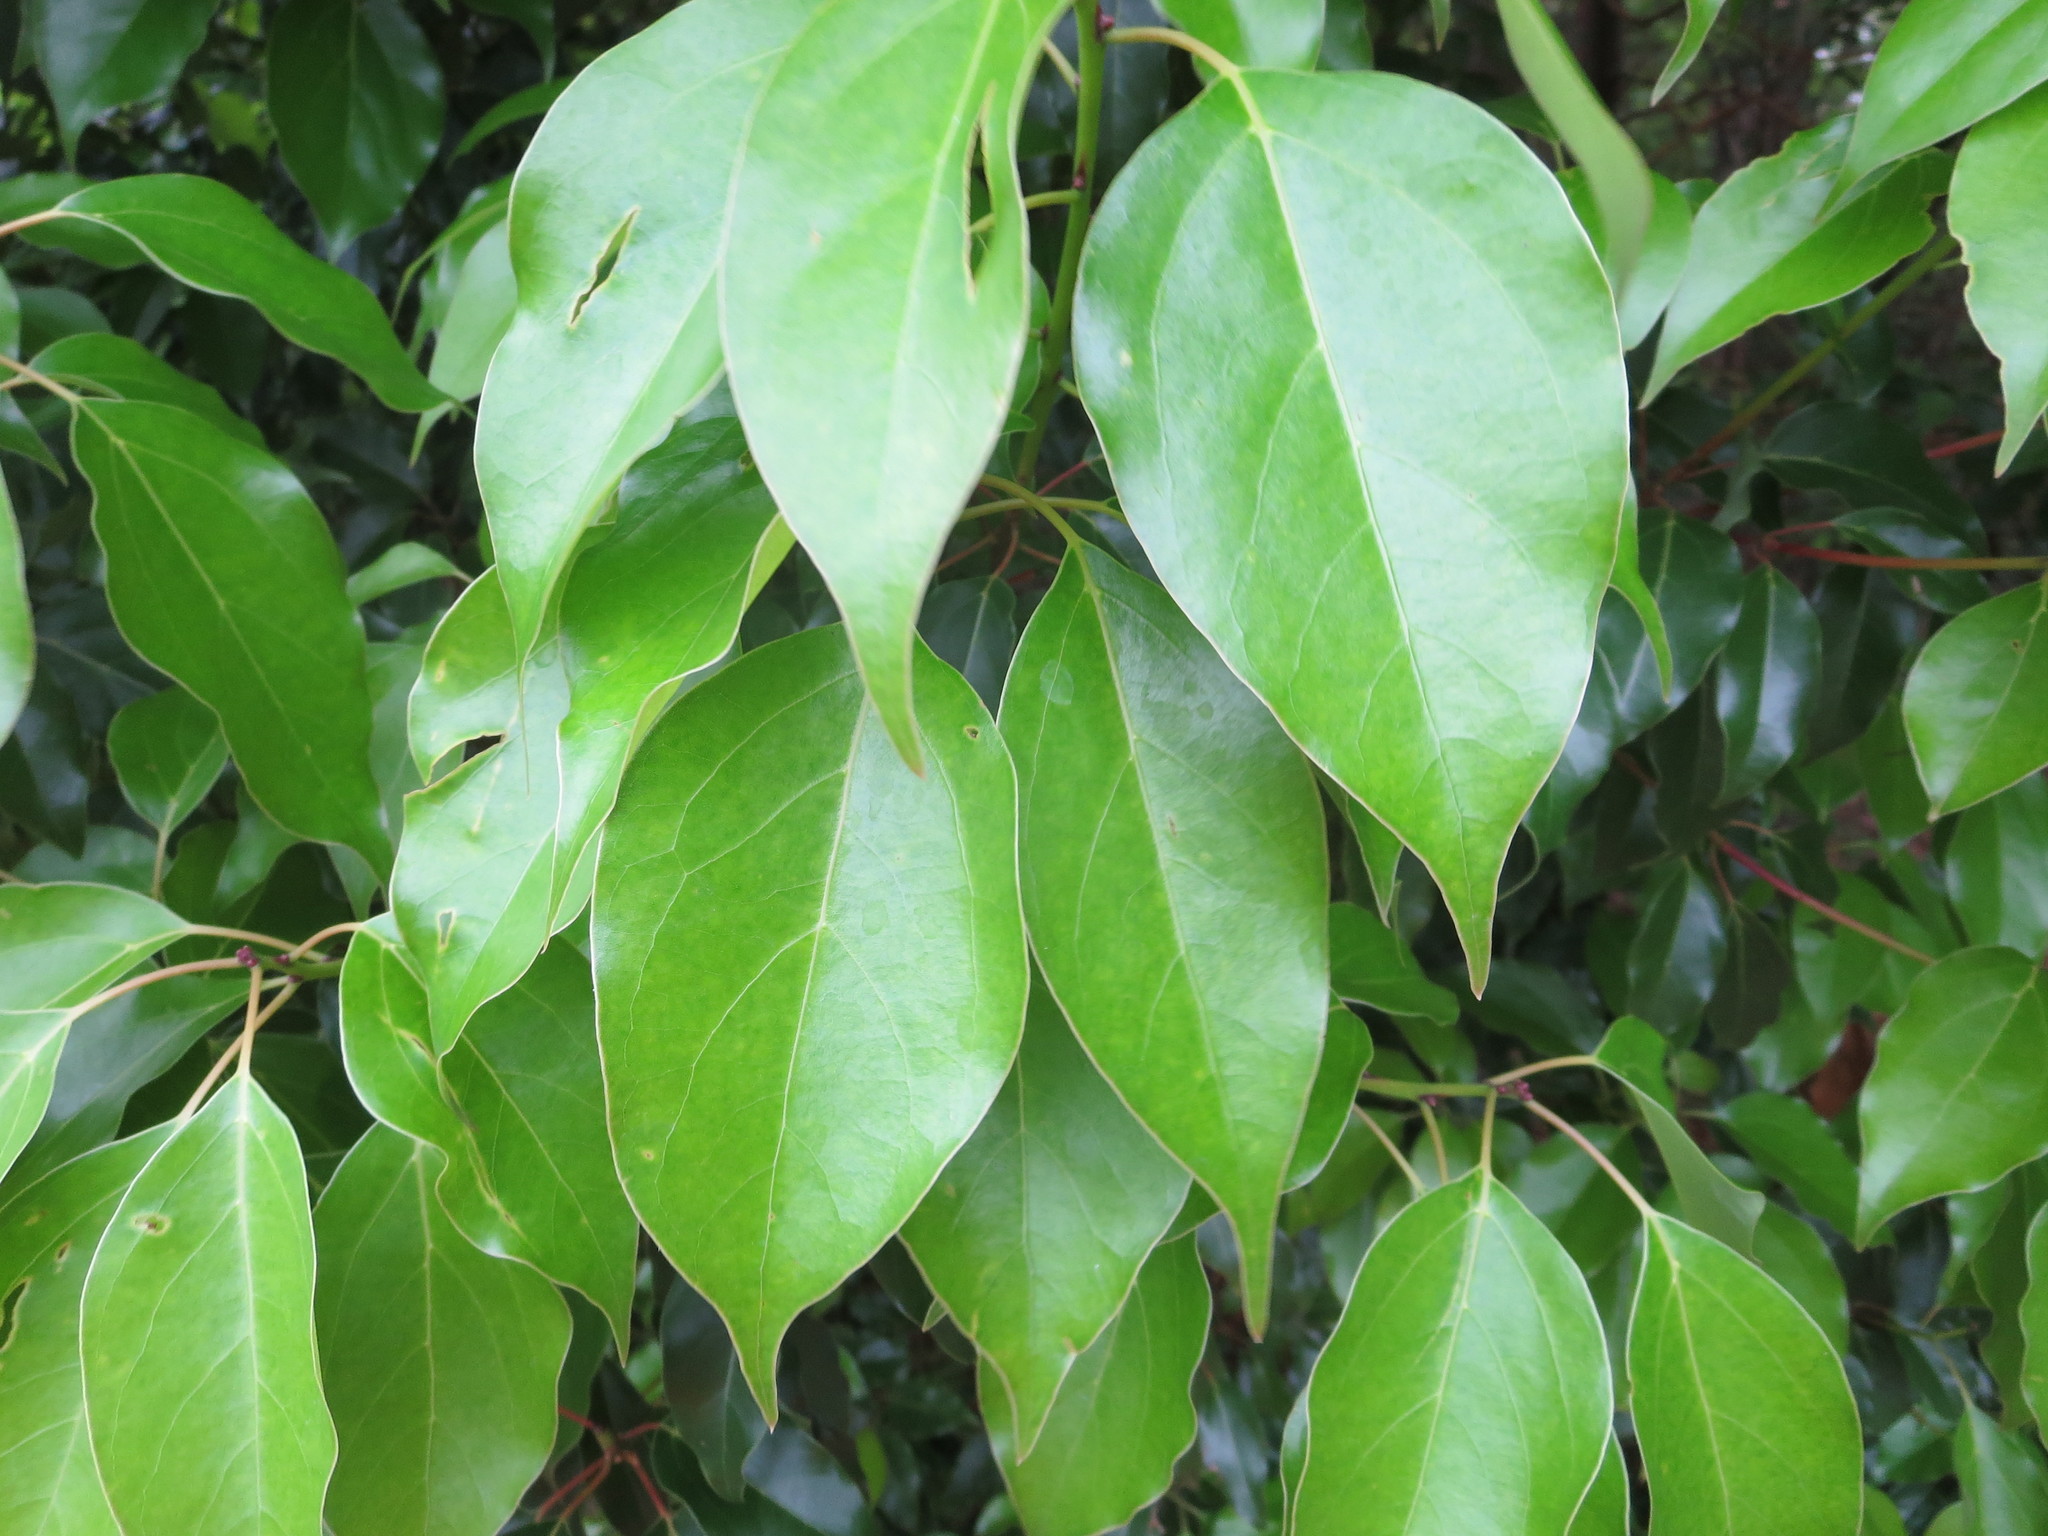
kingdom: Plantae
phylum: Tracheophyta
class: Magnoliopsida
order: Laurales
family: Lauraceae
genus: Cinnamomum
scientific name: Cinnamomum camphora
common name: Camphortree
